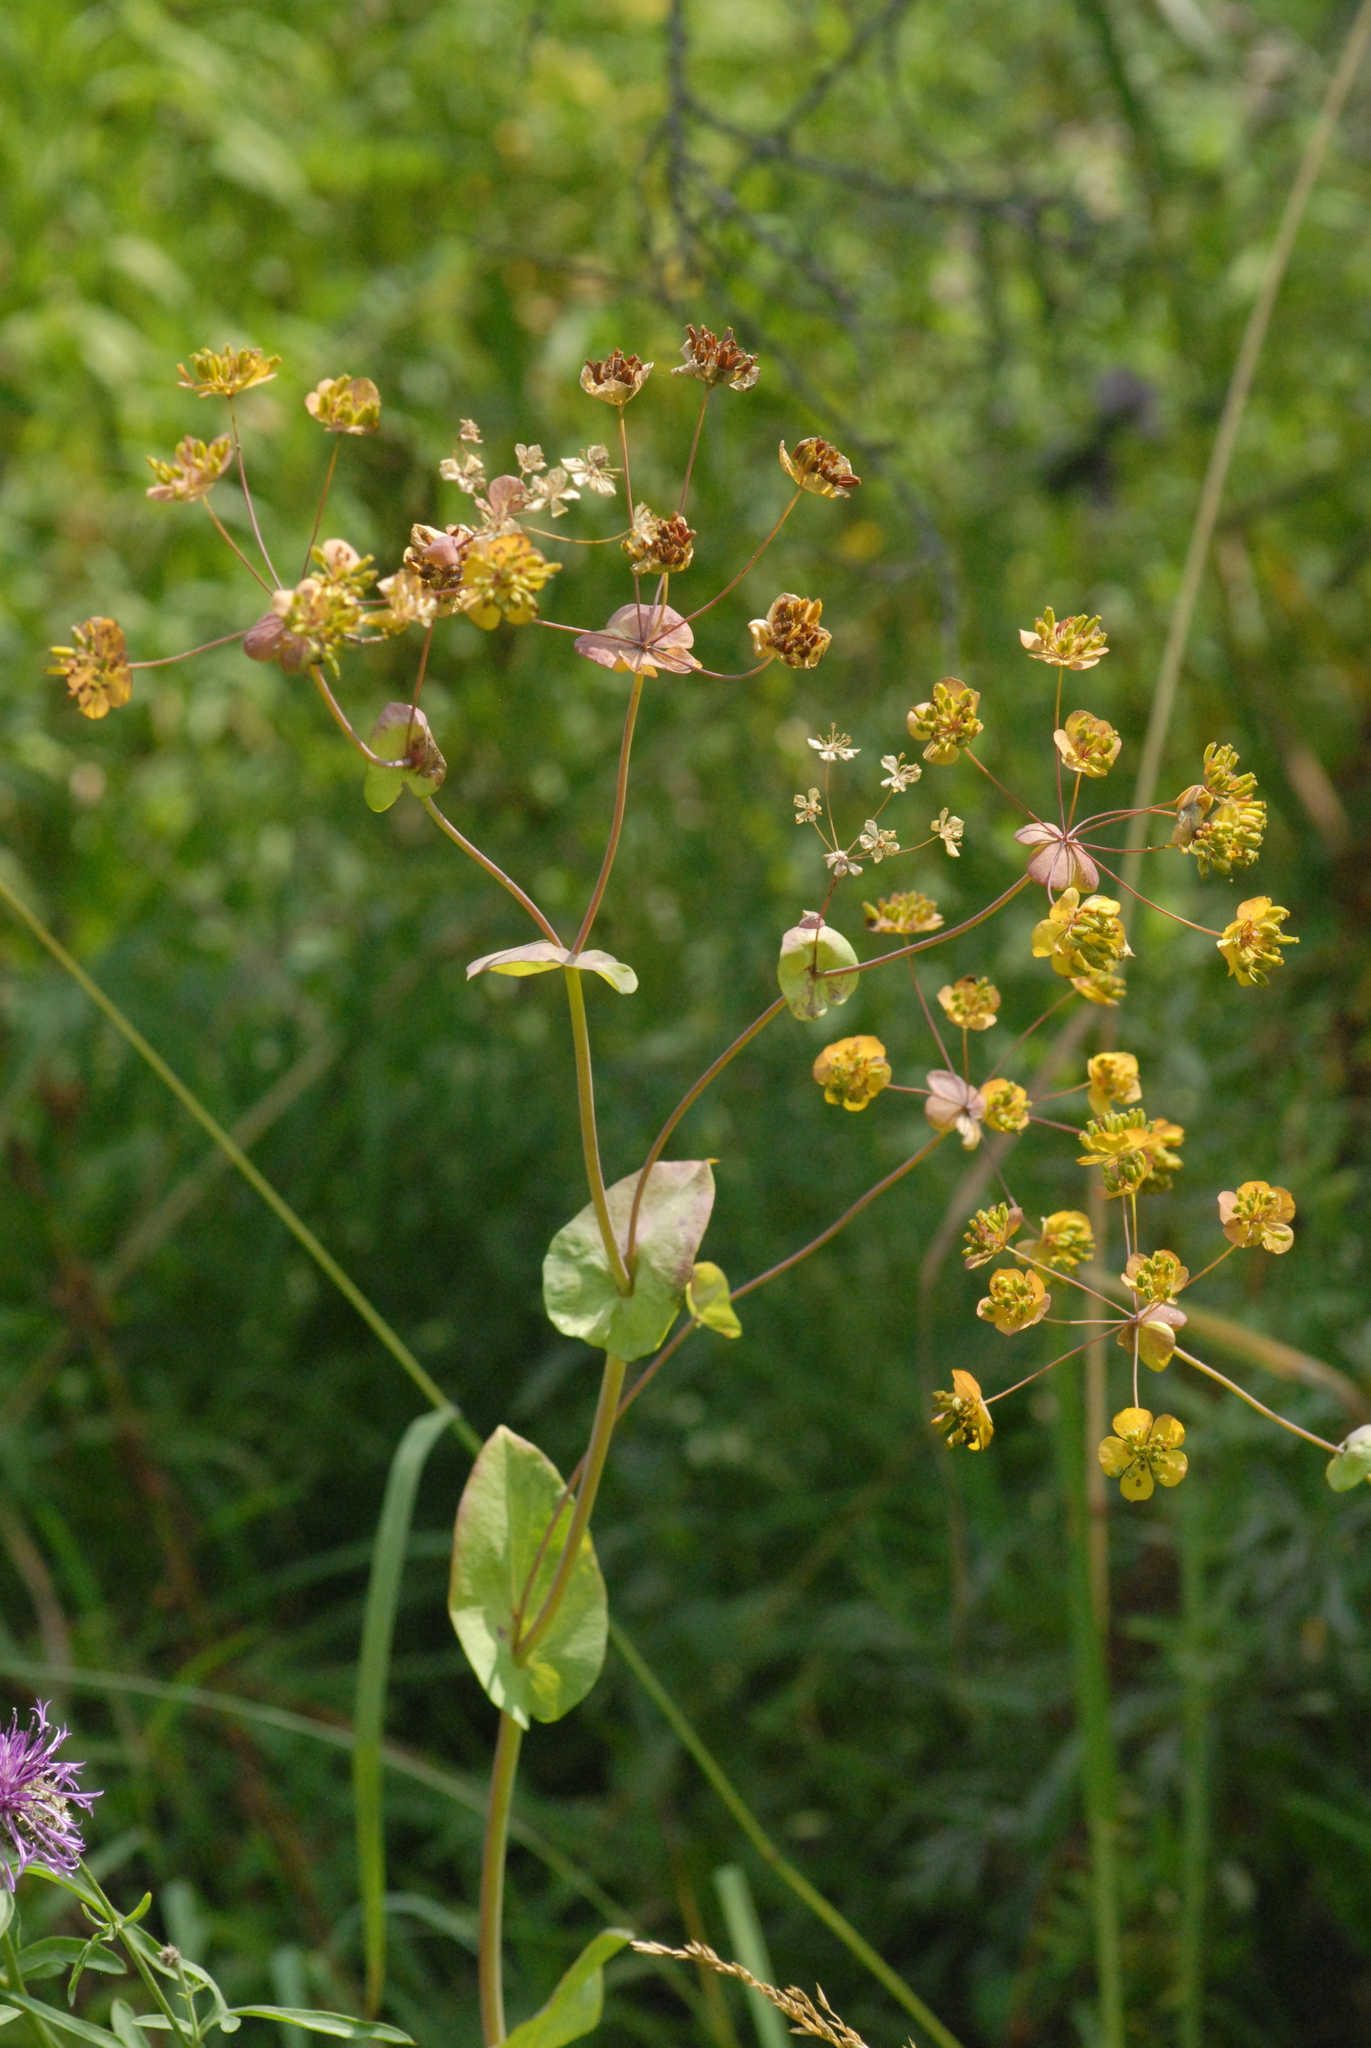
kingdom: Plantae
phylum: Tracheophyta
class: Magnoliopsida
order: Apiales
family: Apiaceae
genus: Bupleurum
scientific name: Bupleurum aureum
